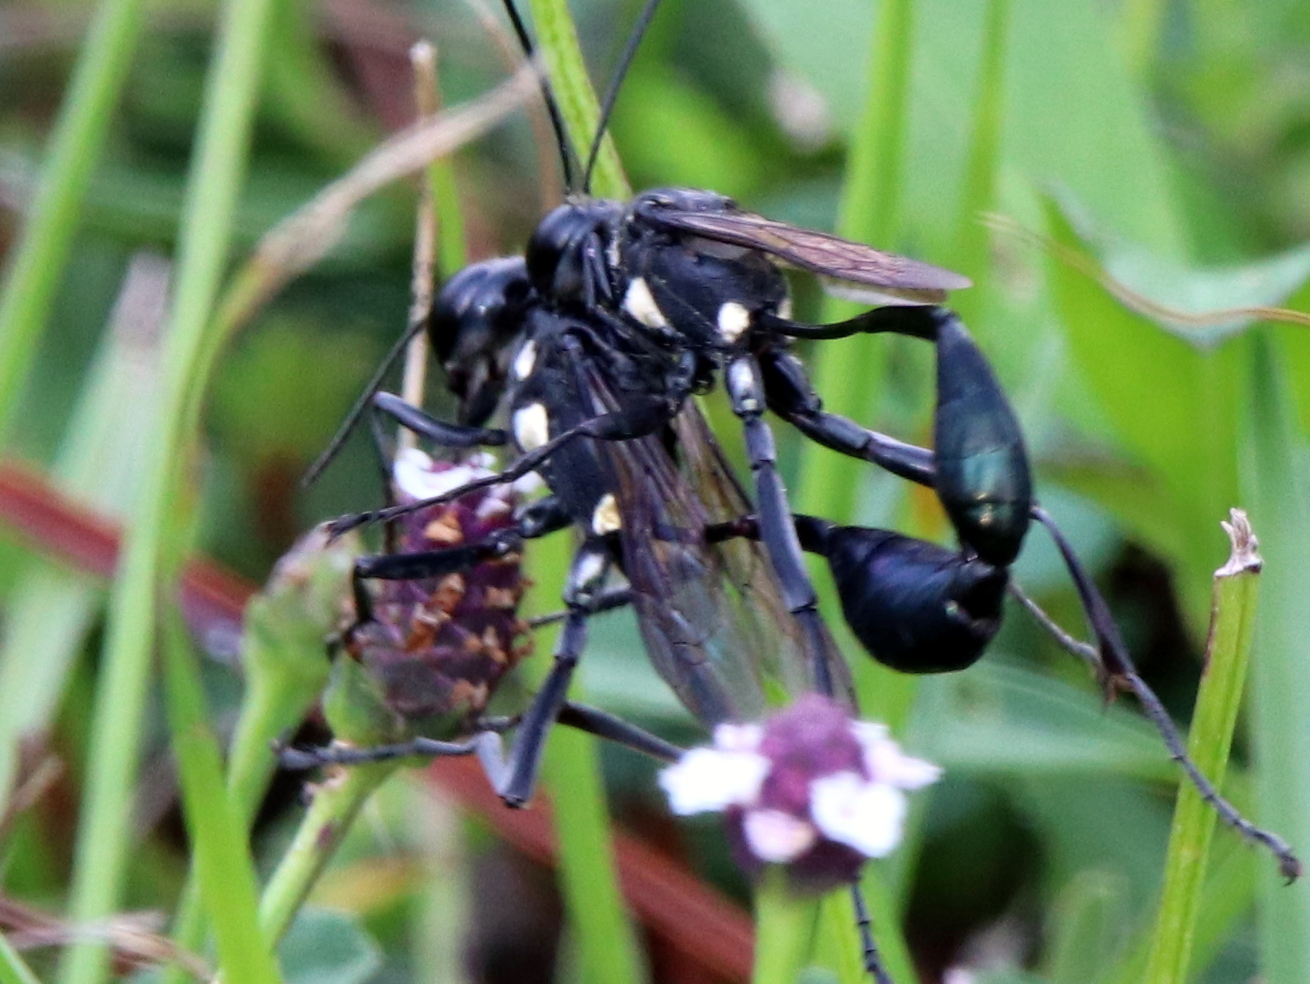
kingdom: Animalia
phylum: Arthropoda
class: Insecta
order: Hymenoptera
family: Sphecidae
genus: Eremnophila
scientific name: Eremnophila aureonotata
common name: Gold-marked thread-waisted wasp
